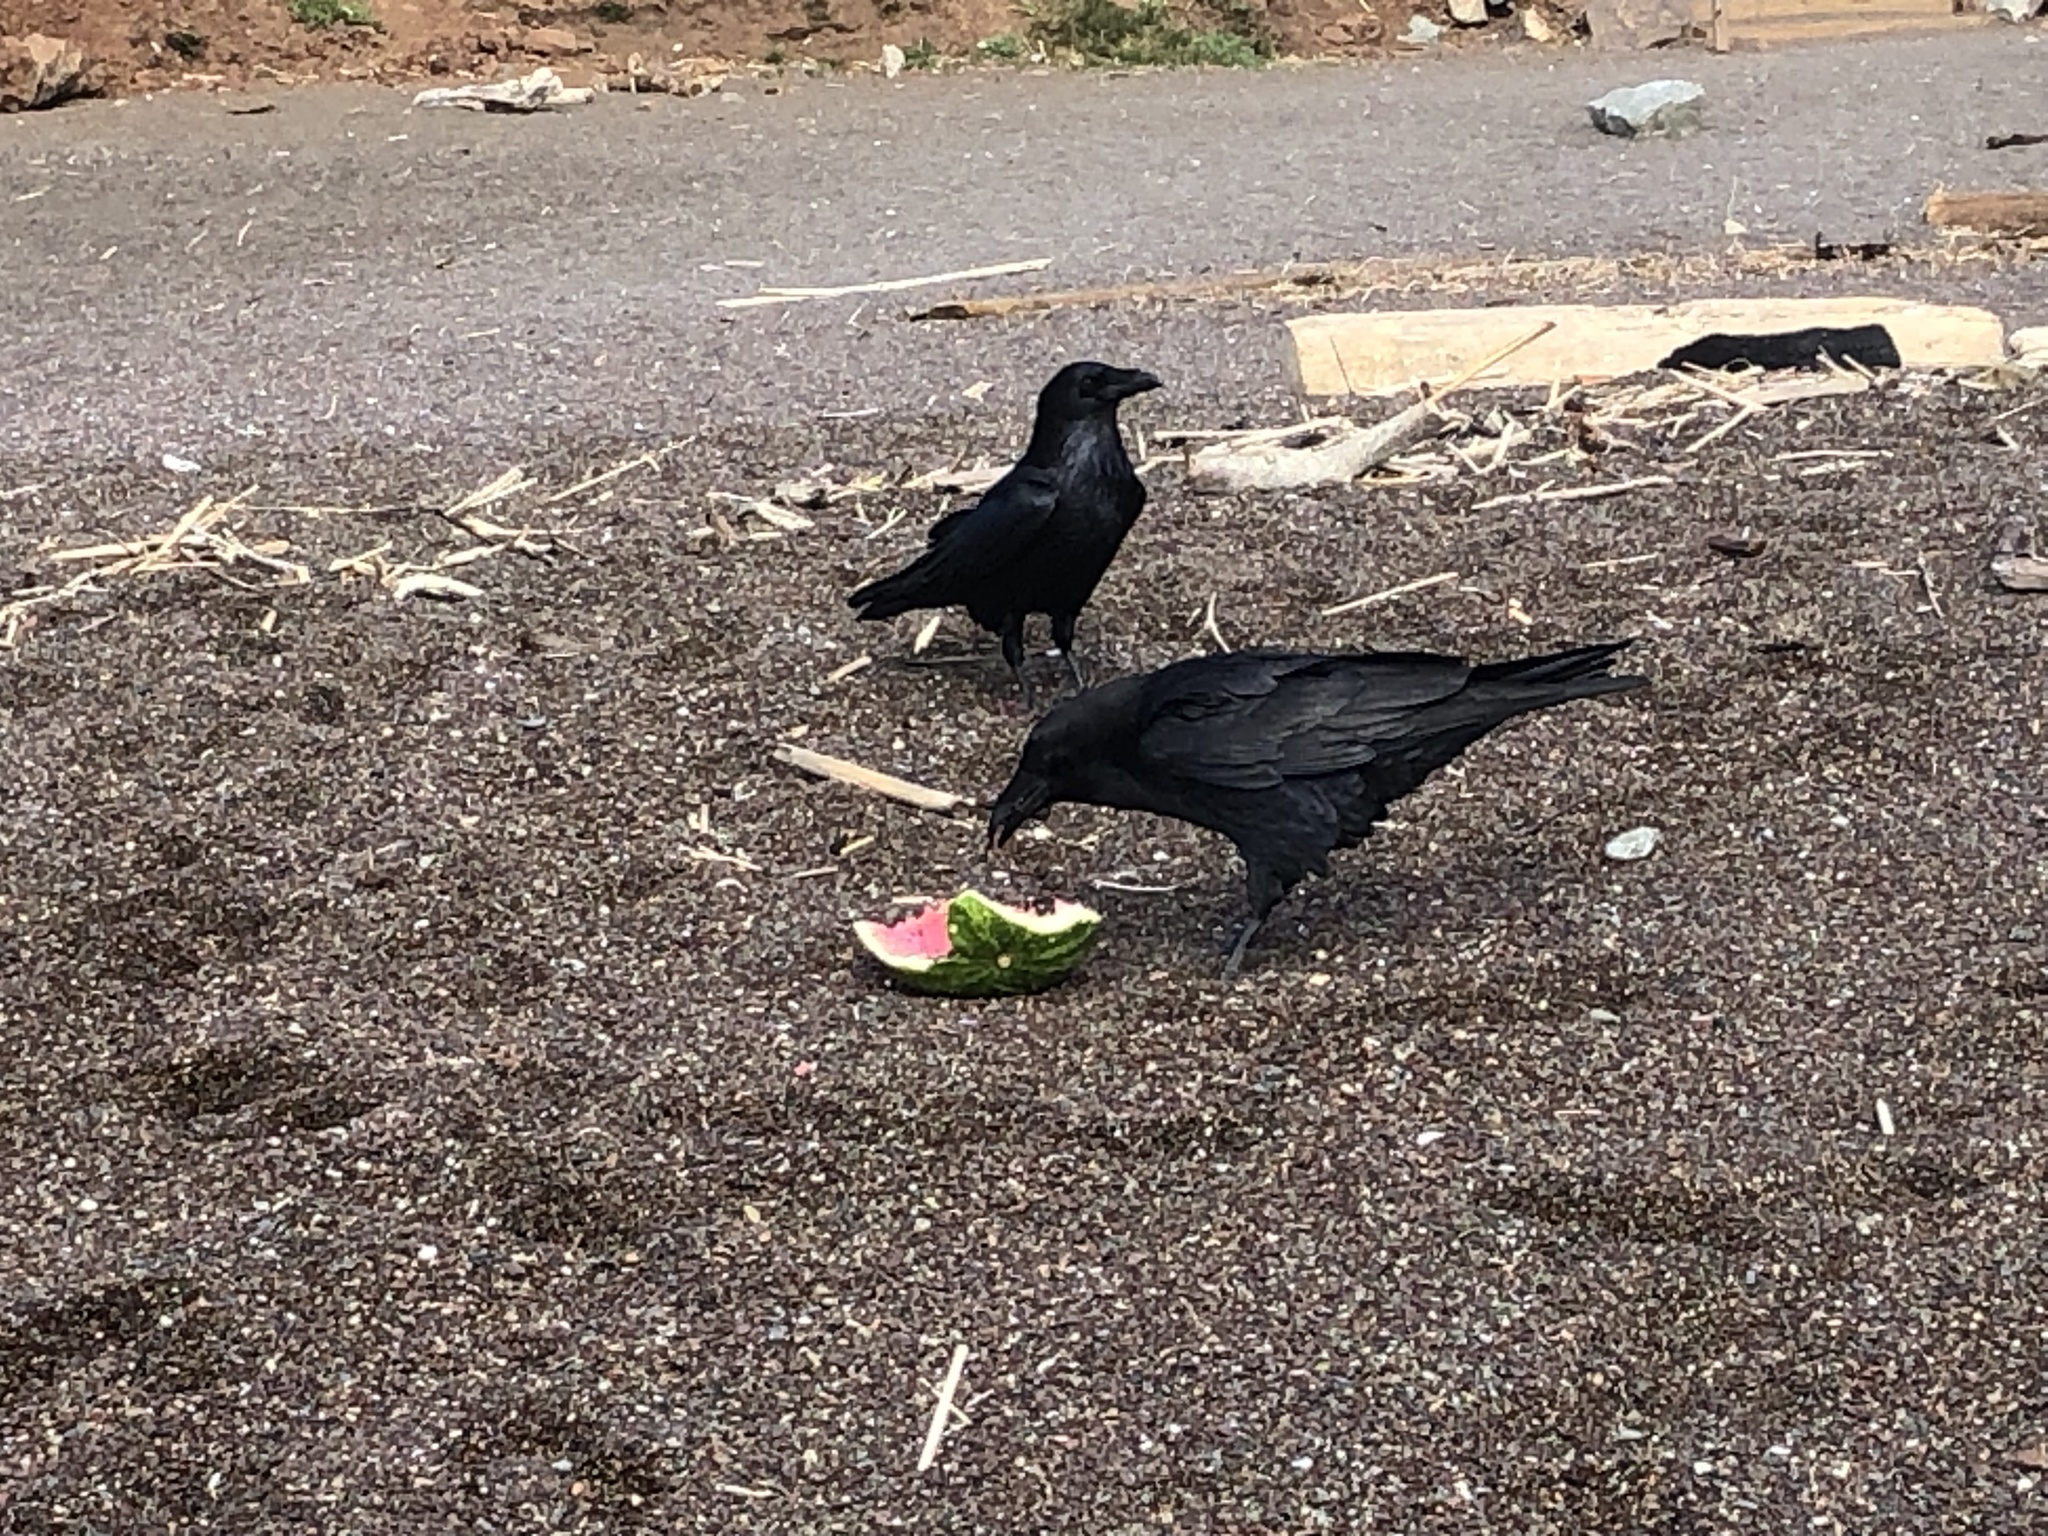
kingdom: Animalia
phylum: Chordata
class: Aves
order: Passeriformes
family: Corvidae
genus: Corvus
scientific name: Corvus corax
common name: Common raven
